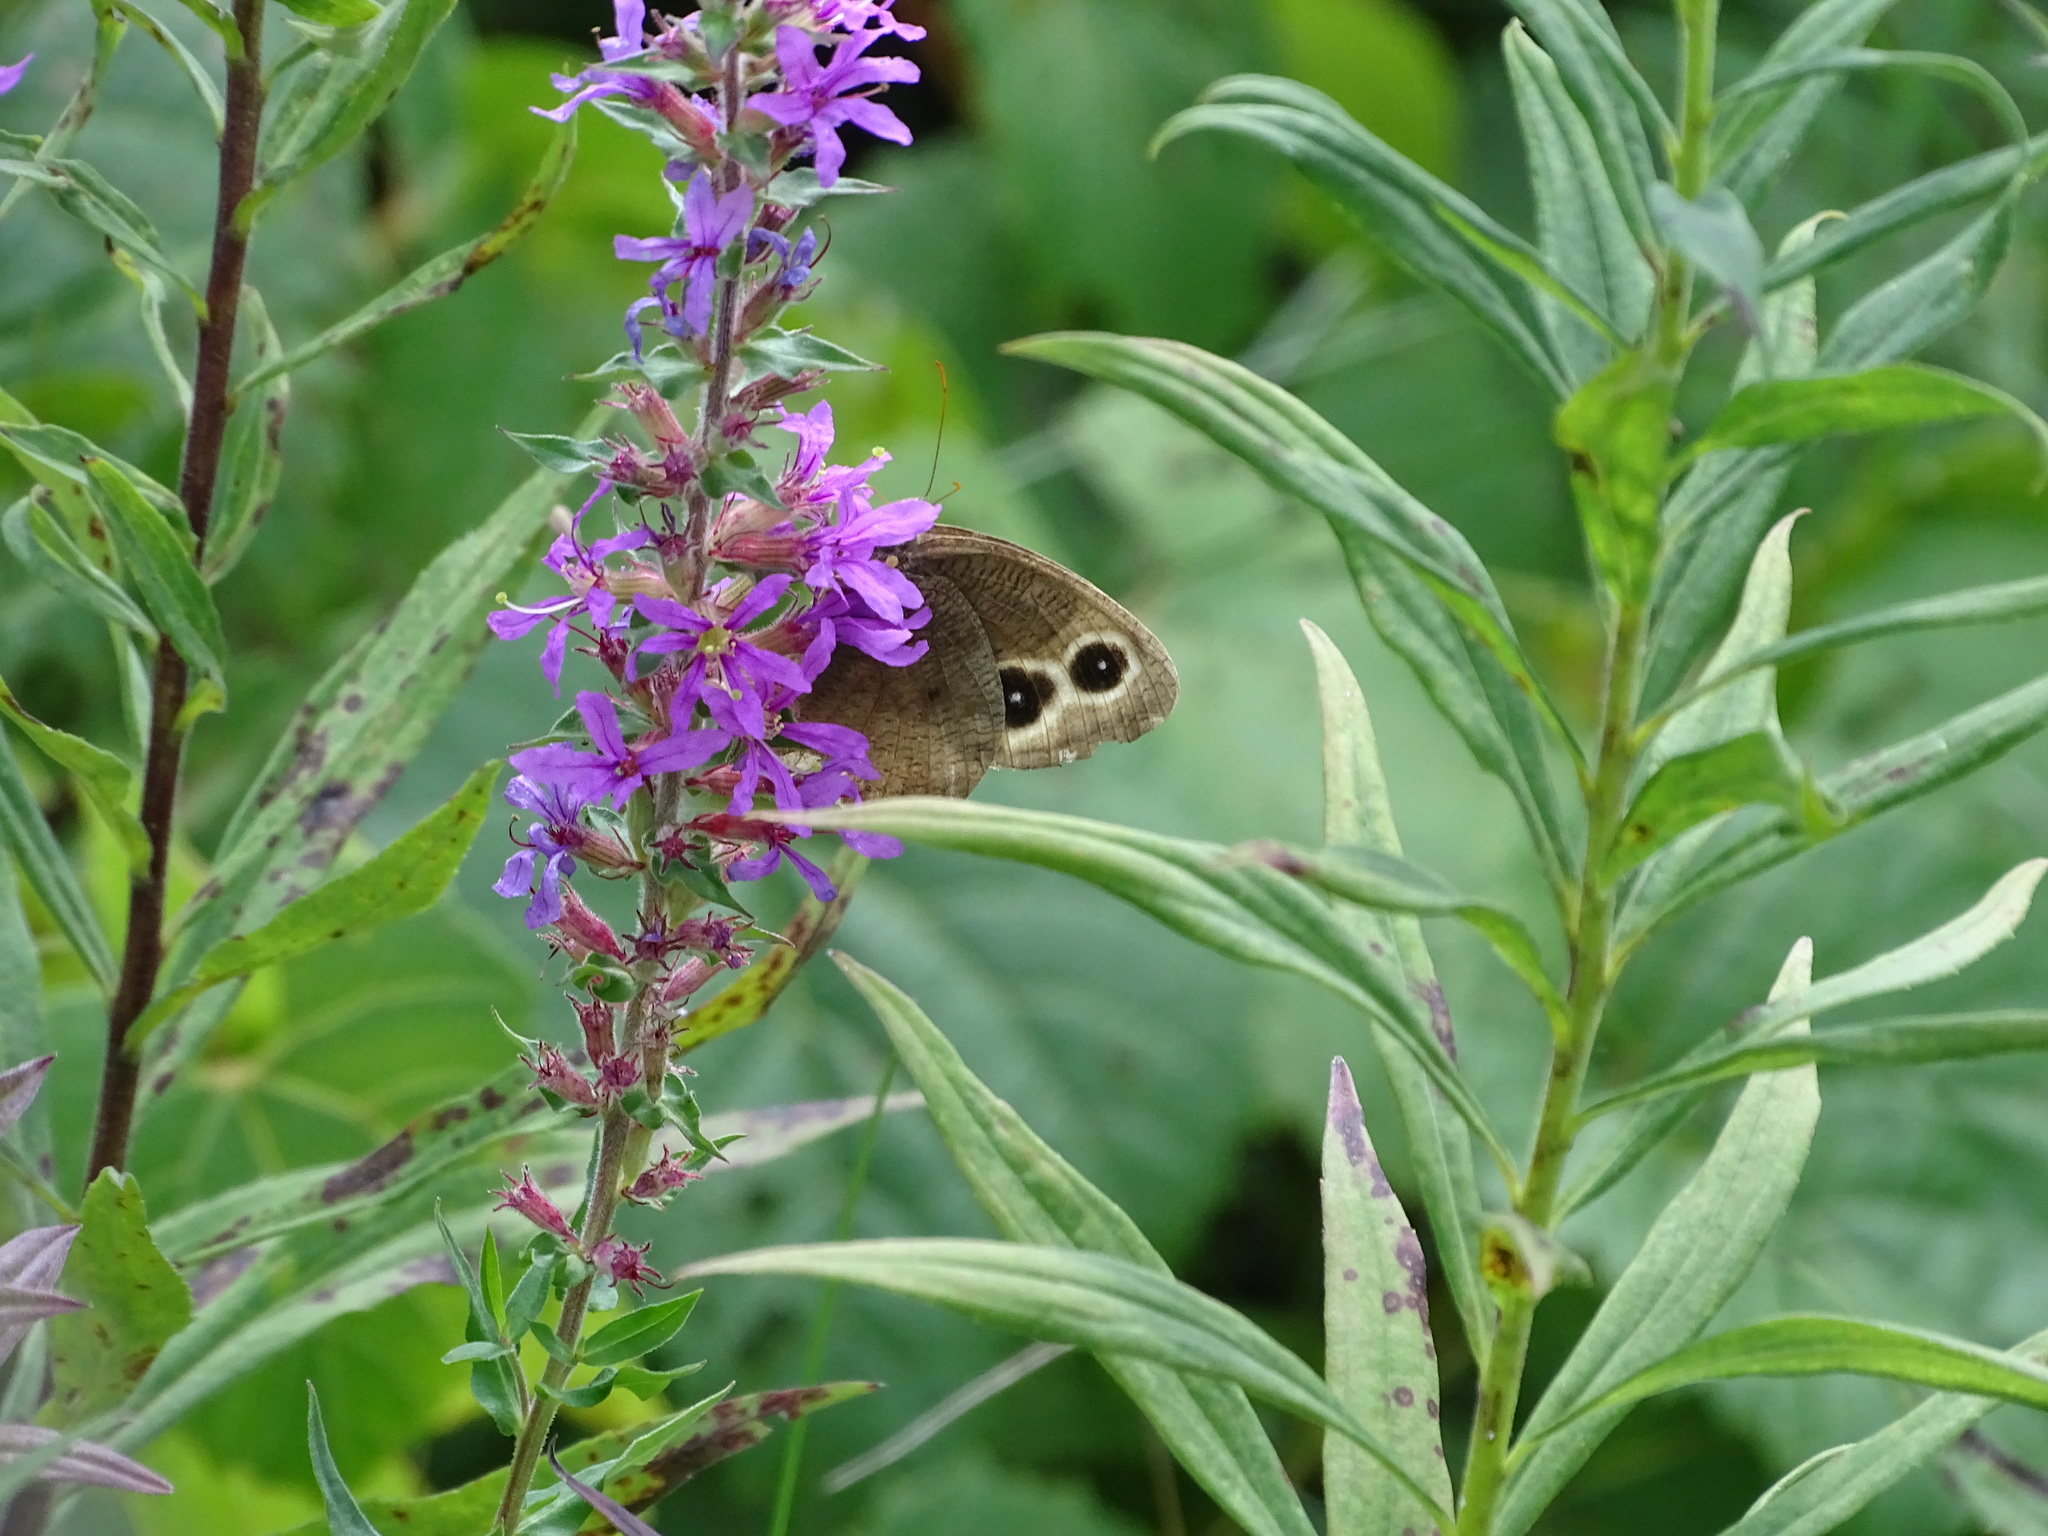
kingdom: Plantae
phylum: Tracheophyta
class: Magnoliopsida
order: Myrtales
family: Lythraceae
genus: Lythrum
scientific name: Lythrum salicaria
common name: Purple loosestrife
